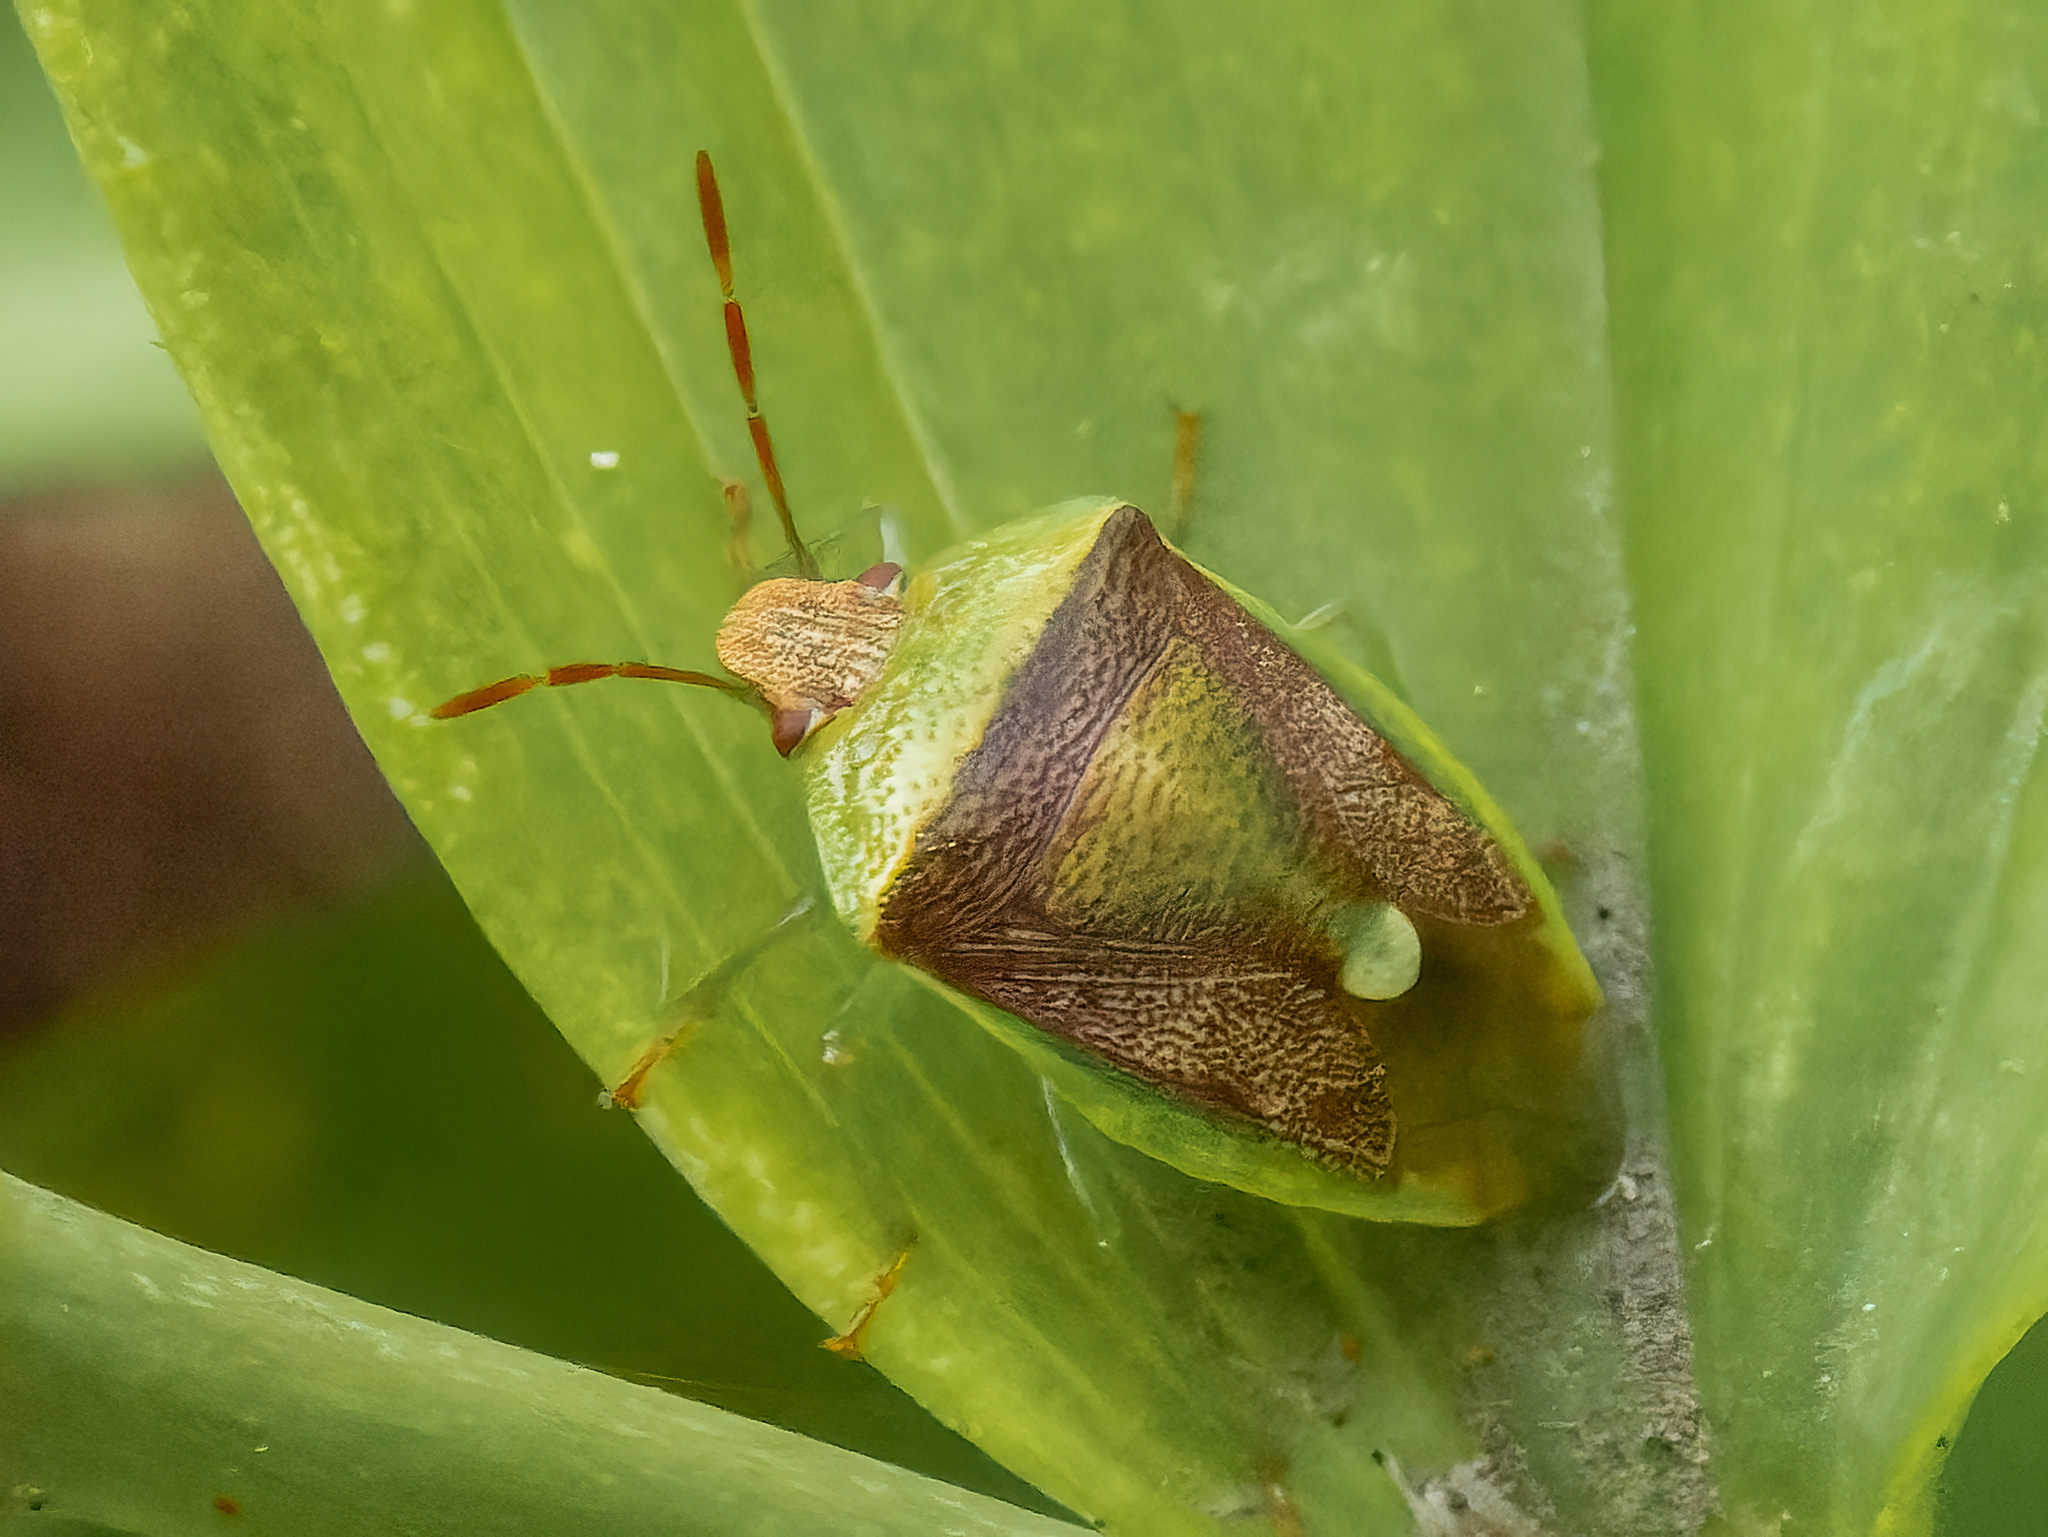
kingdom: Animalia
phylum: Arthropoda
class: Insecta
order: Hemiptera
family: Pentatomidae
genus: Banasa
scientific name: Banasa dimidiata
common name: Green burgundy stink bug
